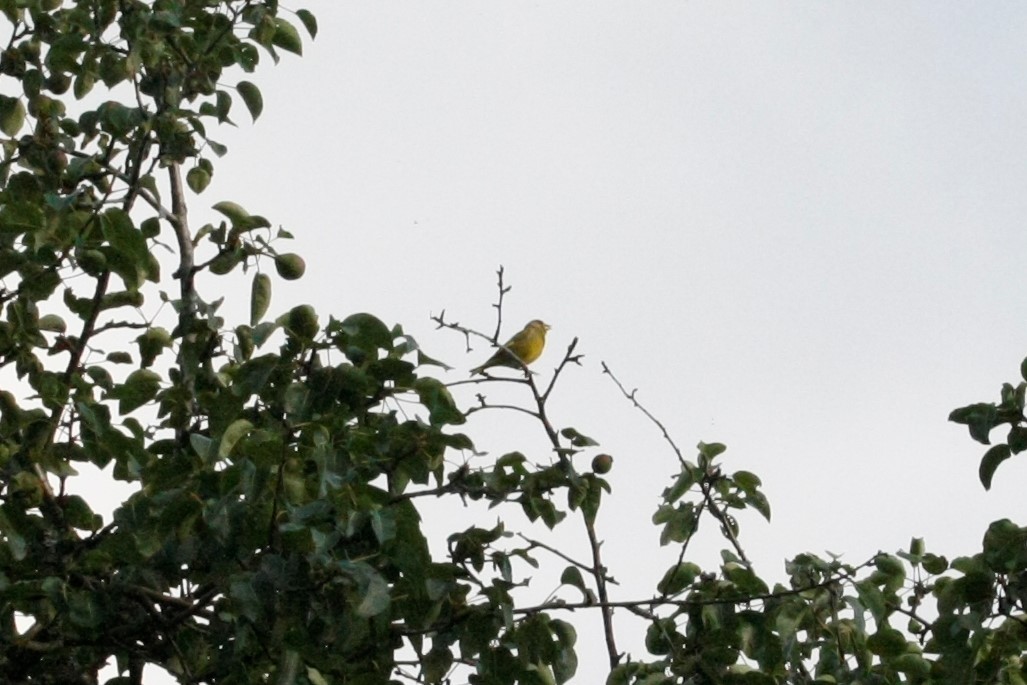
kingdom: Plantae
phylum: Tracheophyta
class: Liliopsida
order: Poales
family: Poaceae
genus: Chloris
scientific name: Chloris chloris
